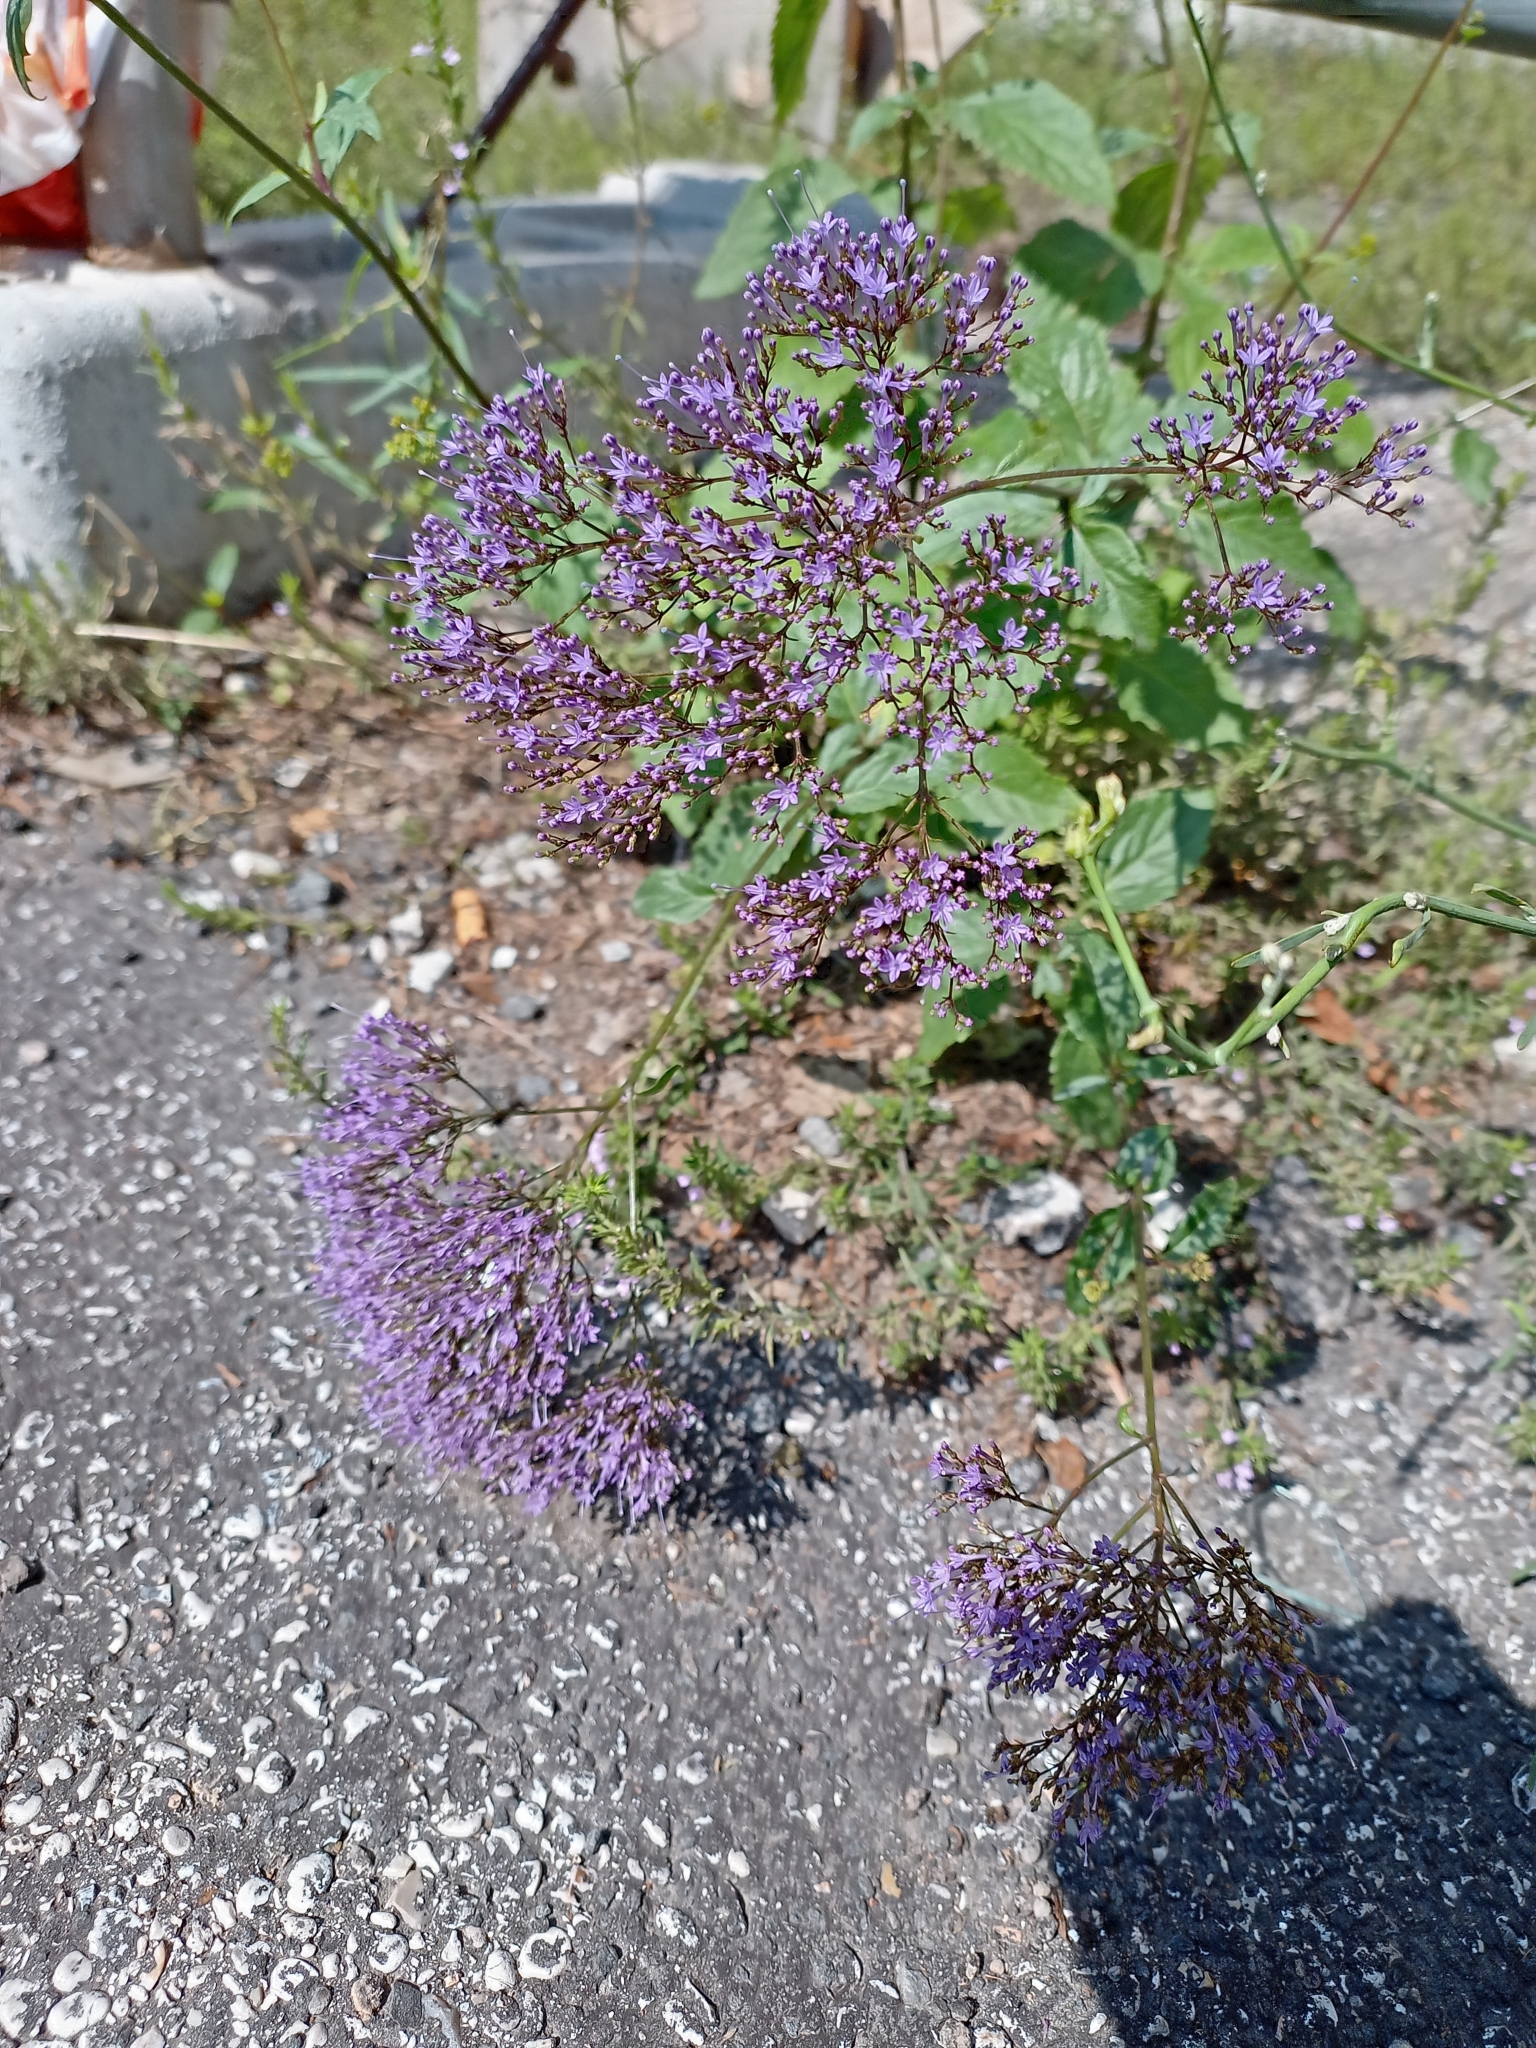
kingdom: Plantae
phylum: Tracheophyta
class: Magnoliopsida
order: Asterales
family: Campanulaceae
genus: Trachelium
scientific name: Trachelium caeruleum
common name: Throatwort
